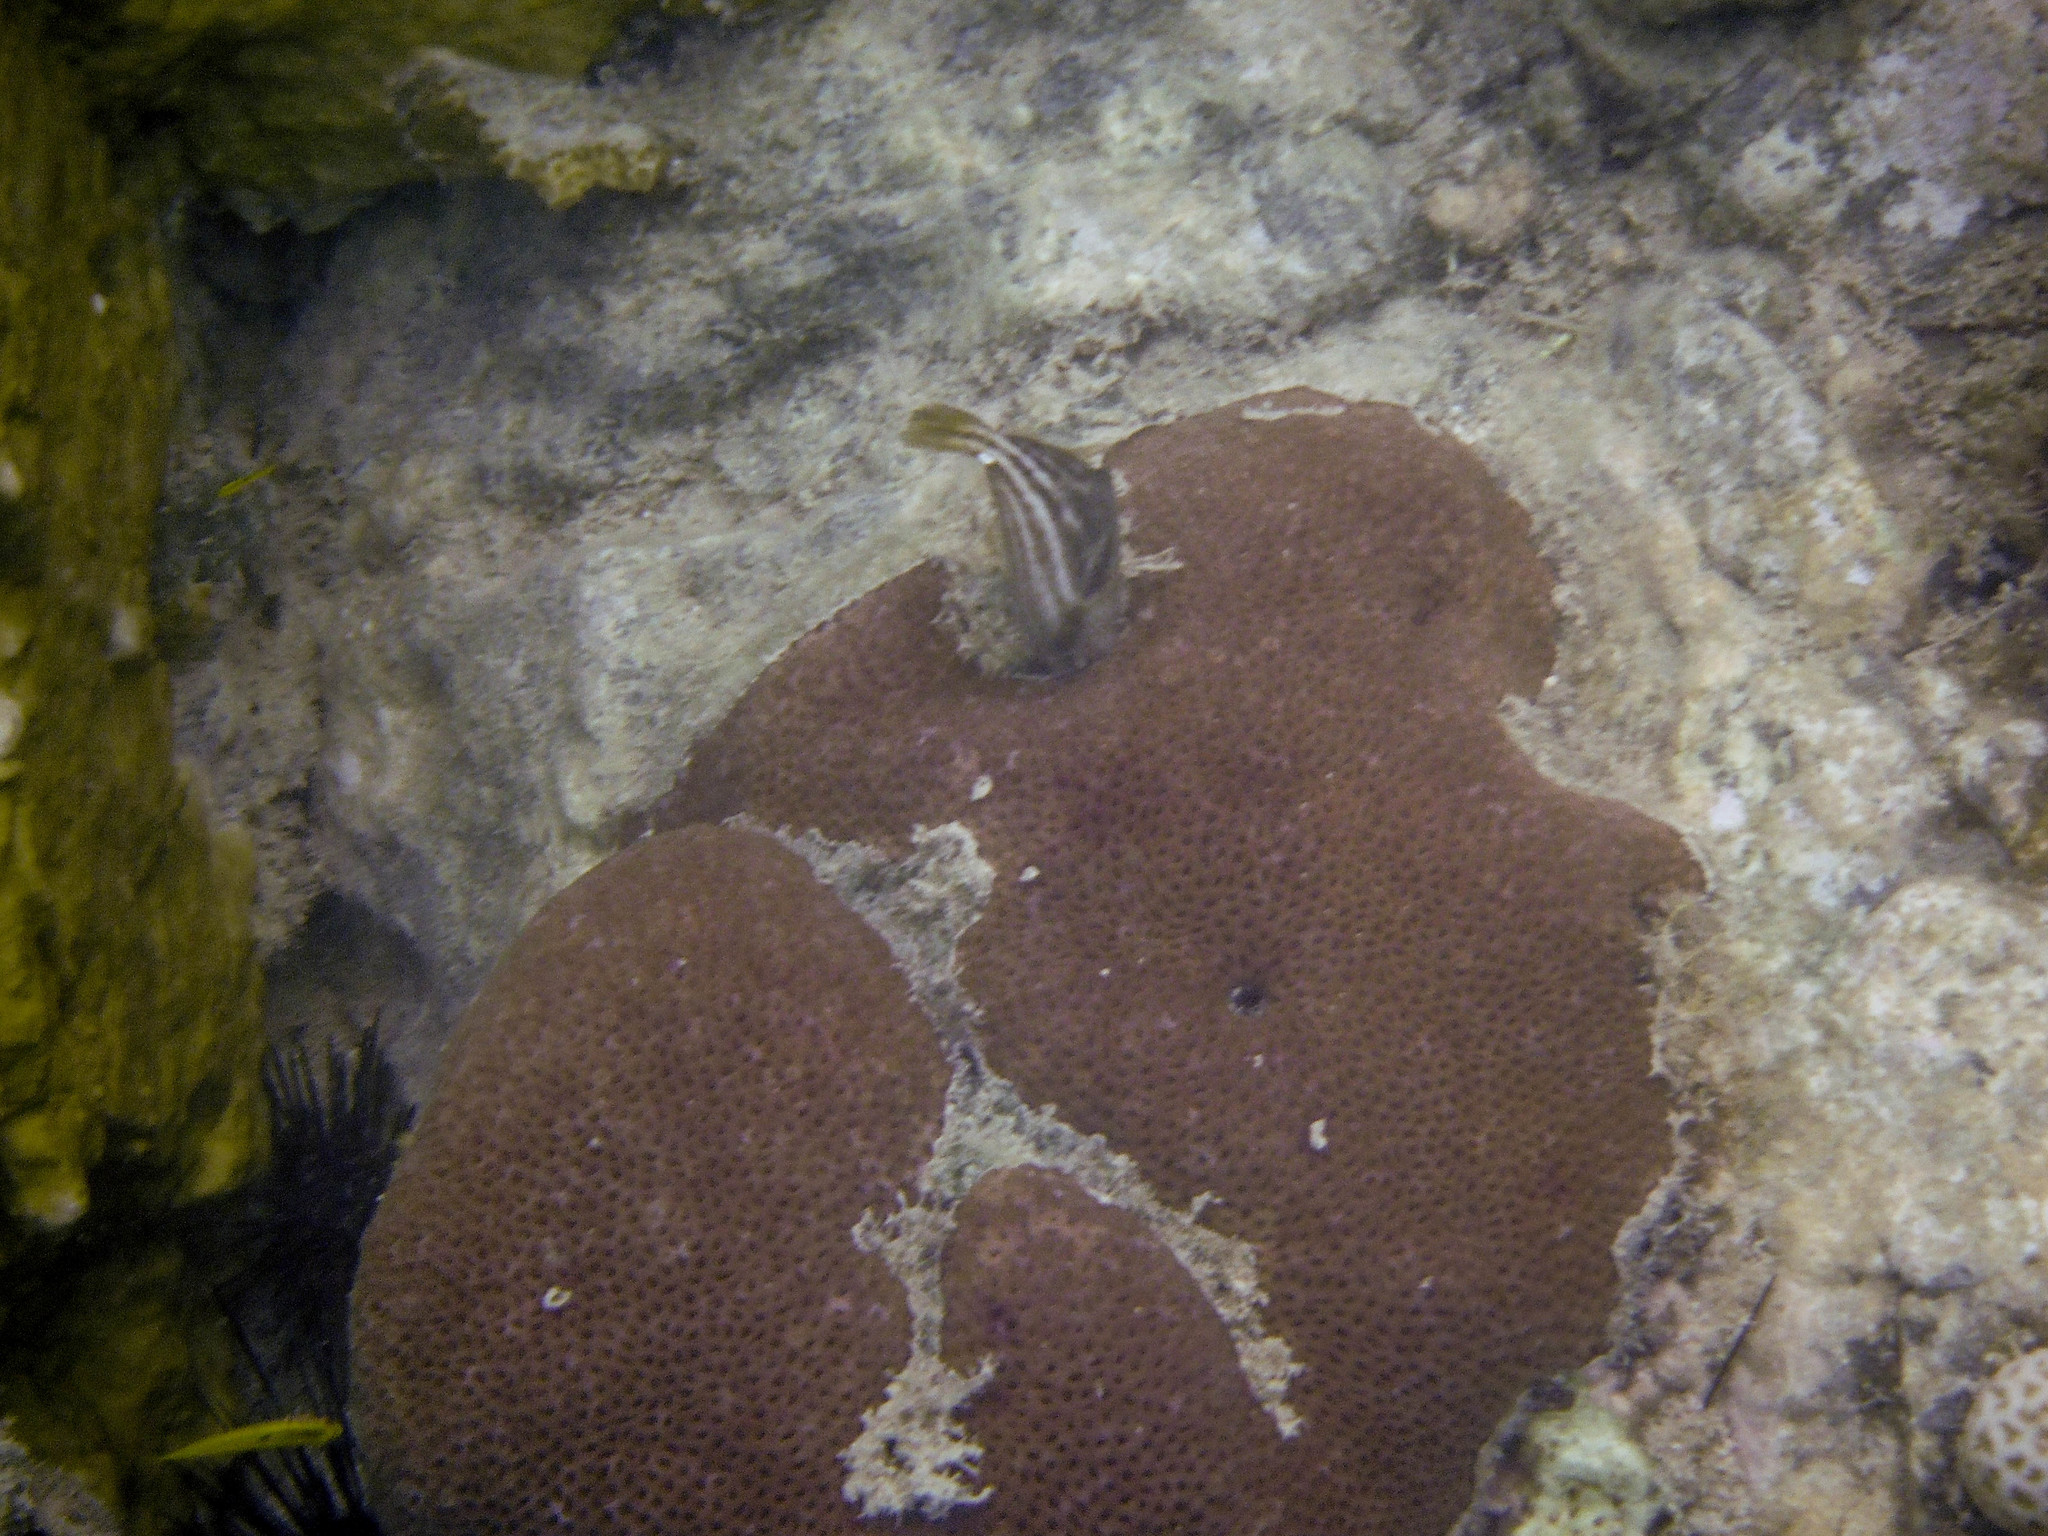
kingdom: Animalia
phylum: Cnidaria
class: Anthozoa
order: Scleractinia
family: Rhizangiidae
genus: Siderastrea
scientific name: Siderastrea siderea
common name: Massive starlet coral
